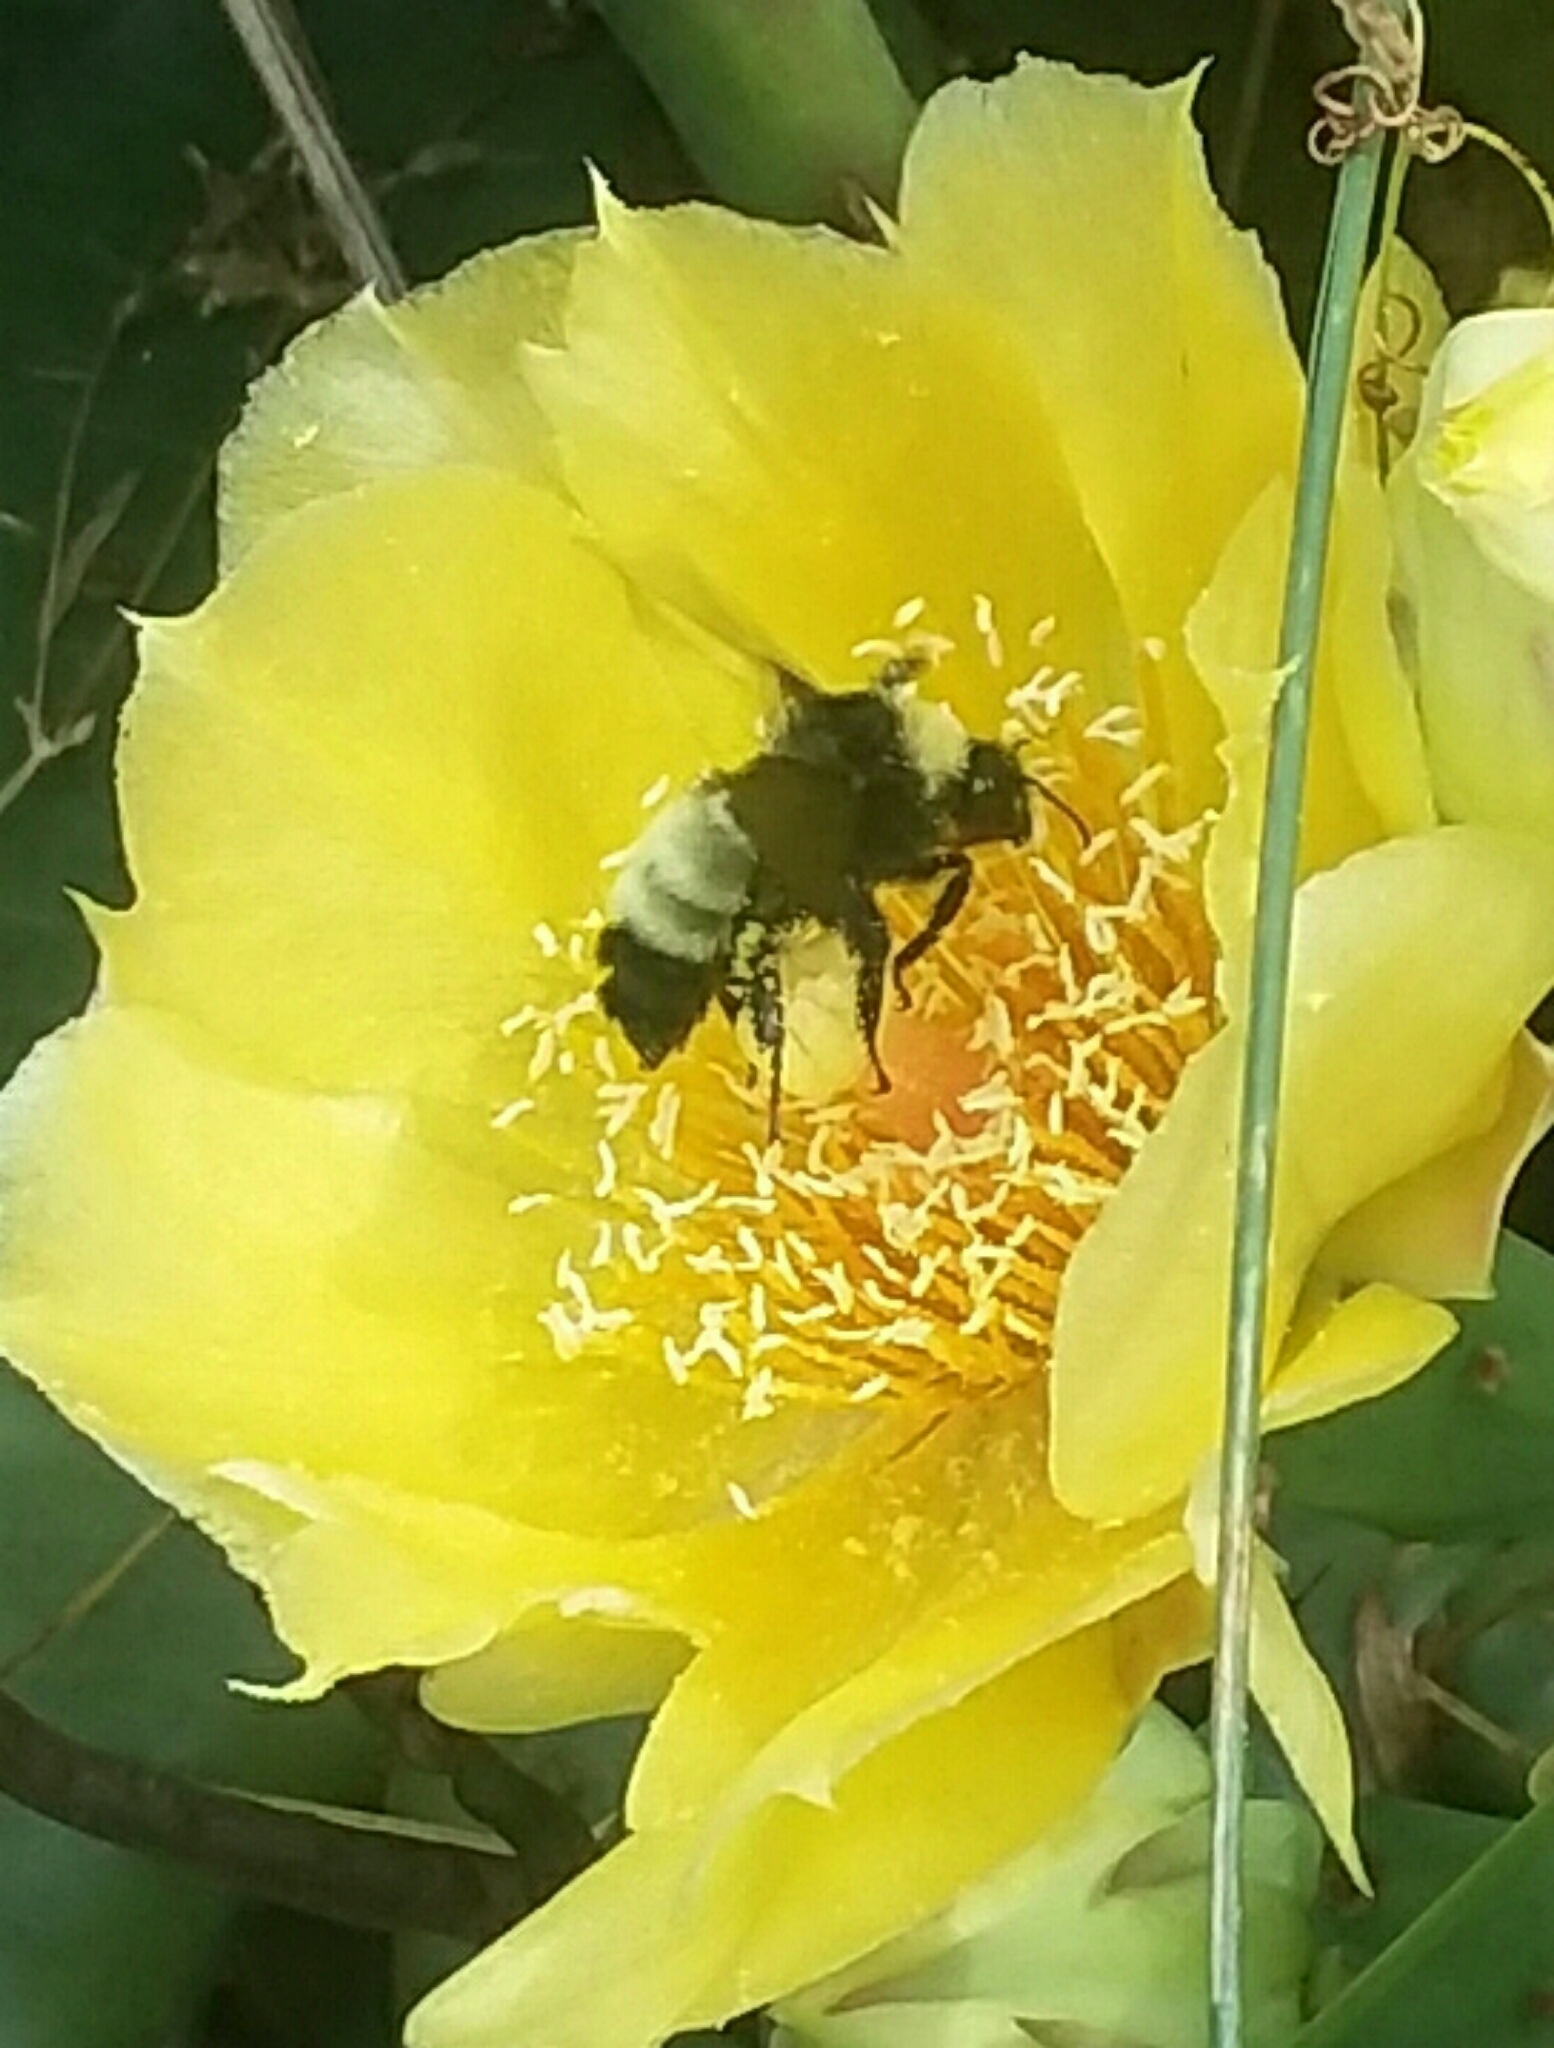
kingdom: Animalia
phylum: Arthropoda
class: Insecta
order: Hymenoptera
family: Apidae
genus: Bombus
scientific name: Bombus pensylvanicus
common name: Bumble bee
